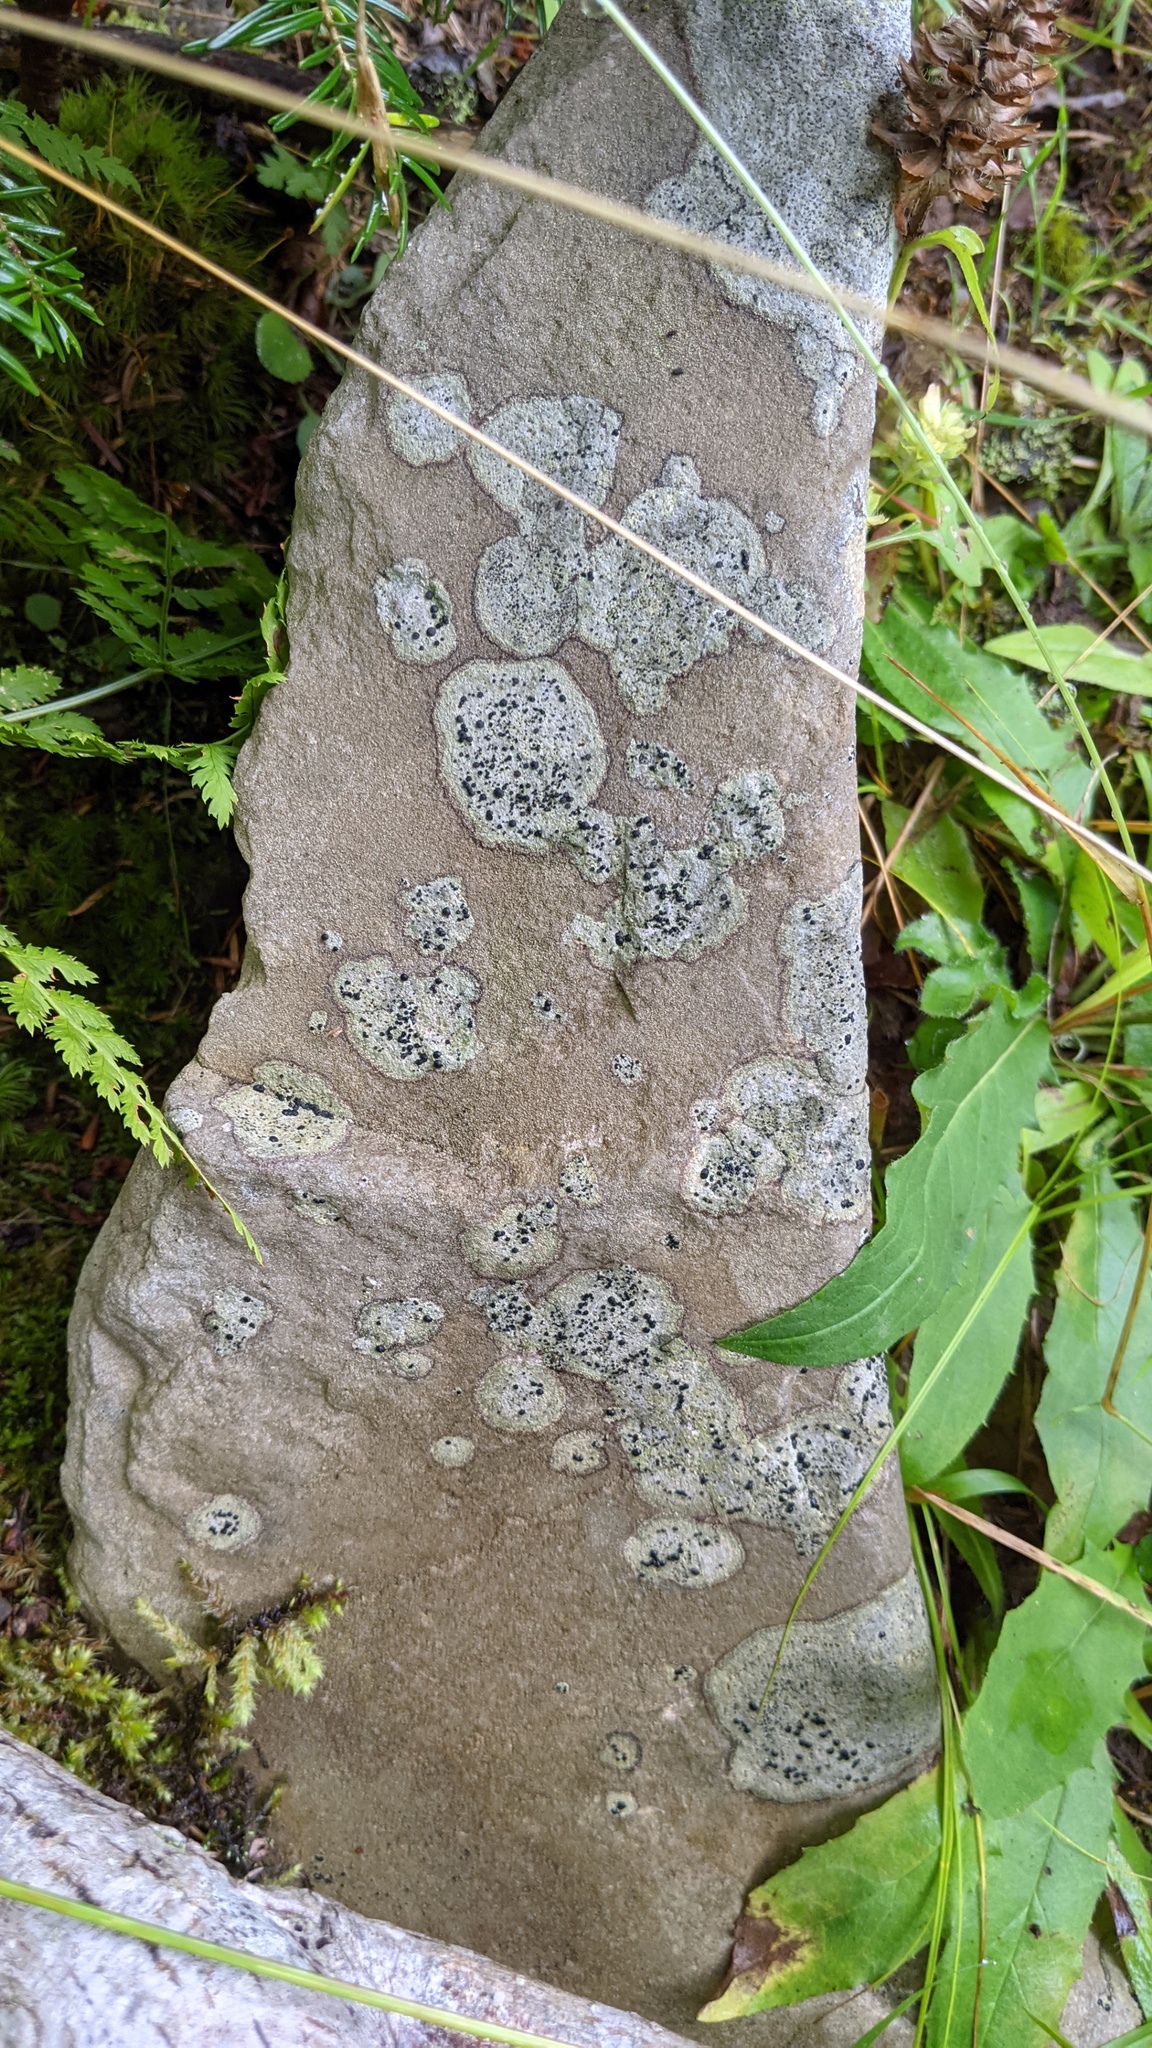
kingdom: Fungi
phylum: Ascomycota
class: Lecanoromycetes
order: Lecideales
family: Lecideaceae
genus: Porpidia
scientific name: Porpidia crustulata
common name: Concentric boulder lichen
